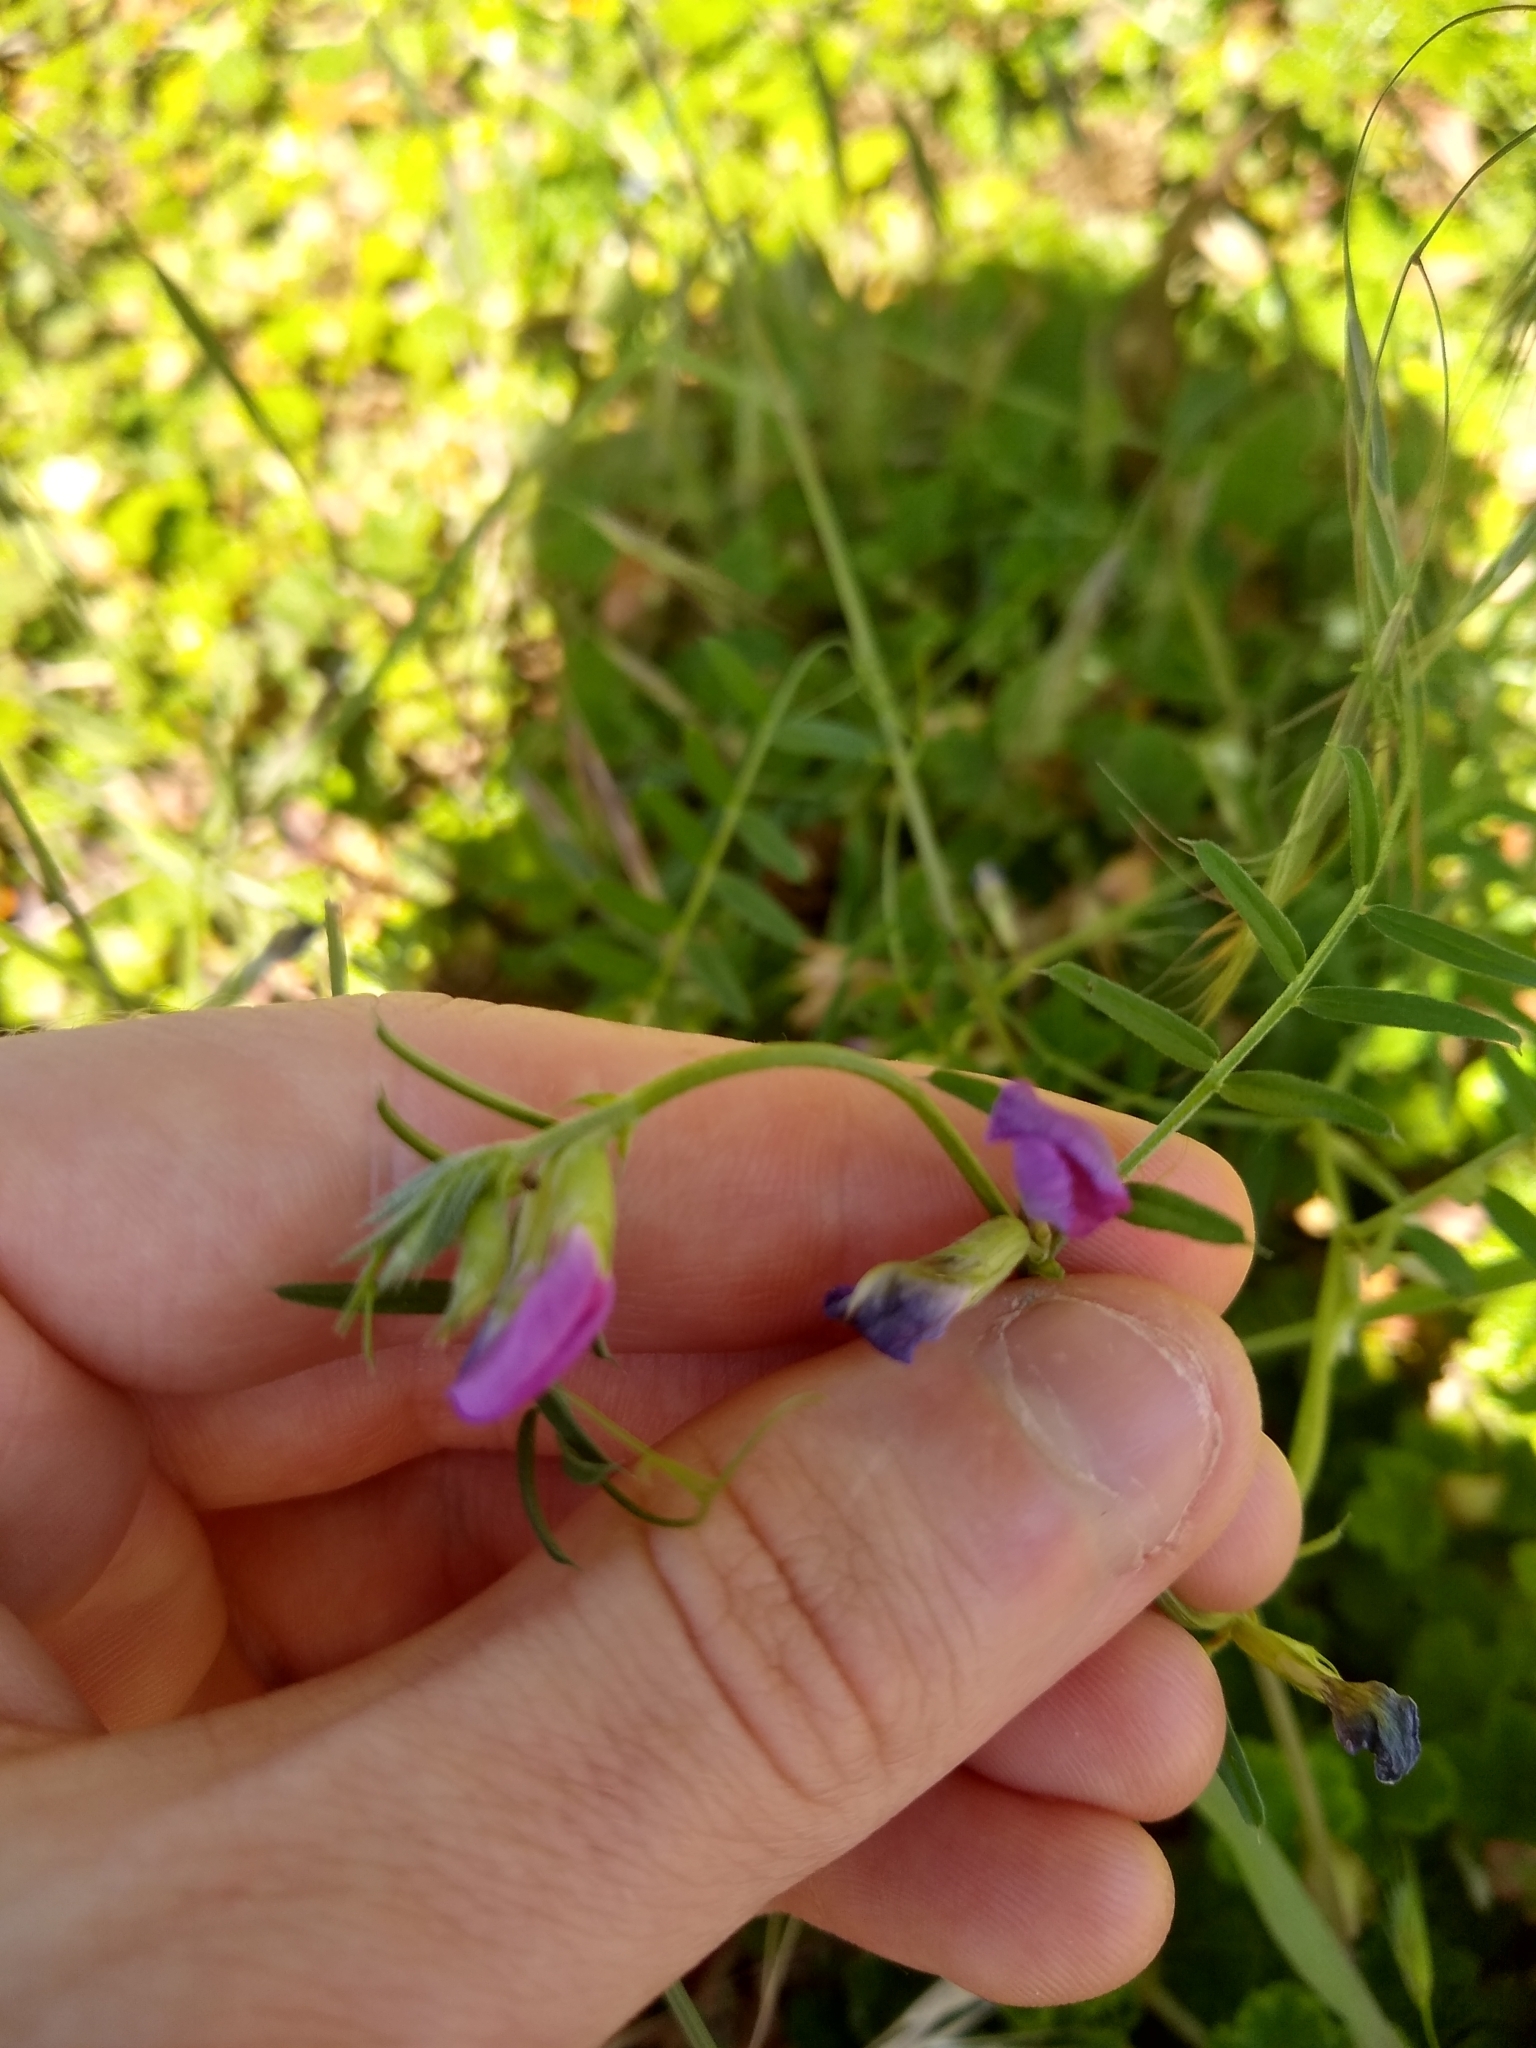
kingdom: Plantae
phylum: Tracheophyta
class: Magnoliopsida
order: Fabales
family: Fabaceae
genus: Vicia
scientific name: Vicia sativa
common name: Garden vetch
